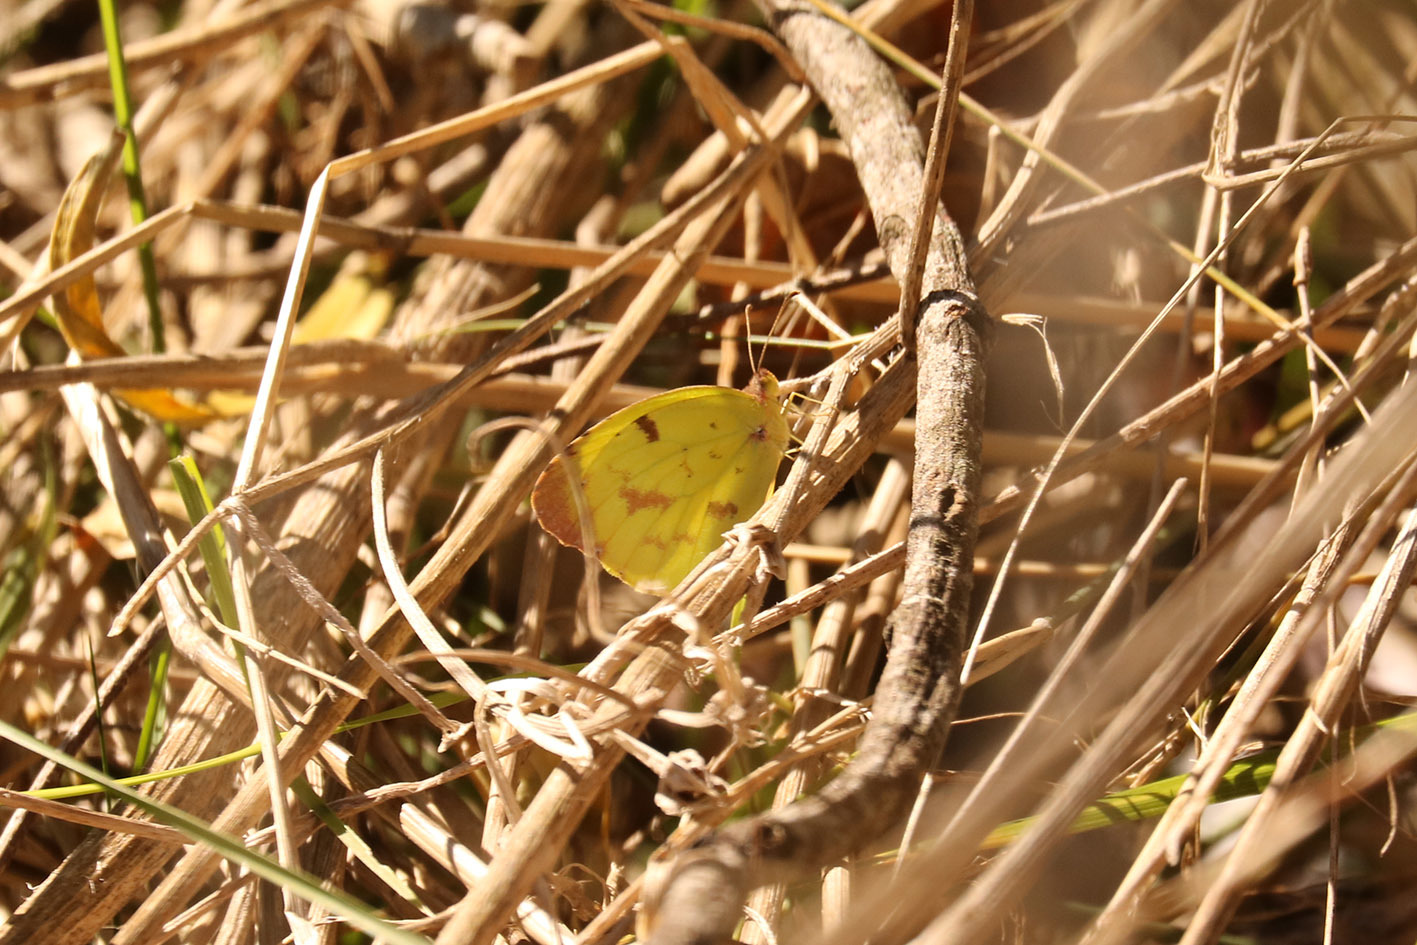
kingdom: Animalia
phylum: Arthropoda
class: Insecta
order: Lepidoptera
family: Pieridae
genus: Teriocolias
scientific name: Teriocolias
